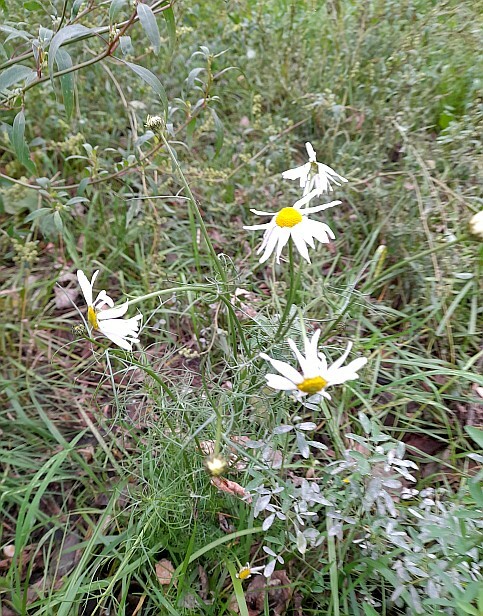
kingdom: Plantae
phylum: Tracheophyta
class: Magnoliopsida
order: Asterales
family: Asteraceae
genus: Tripleurospermum
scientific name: Tripleurospermum inodorum
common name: Scentless mayweed
